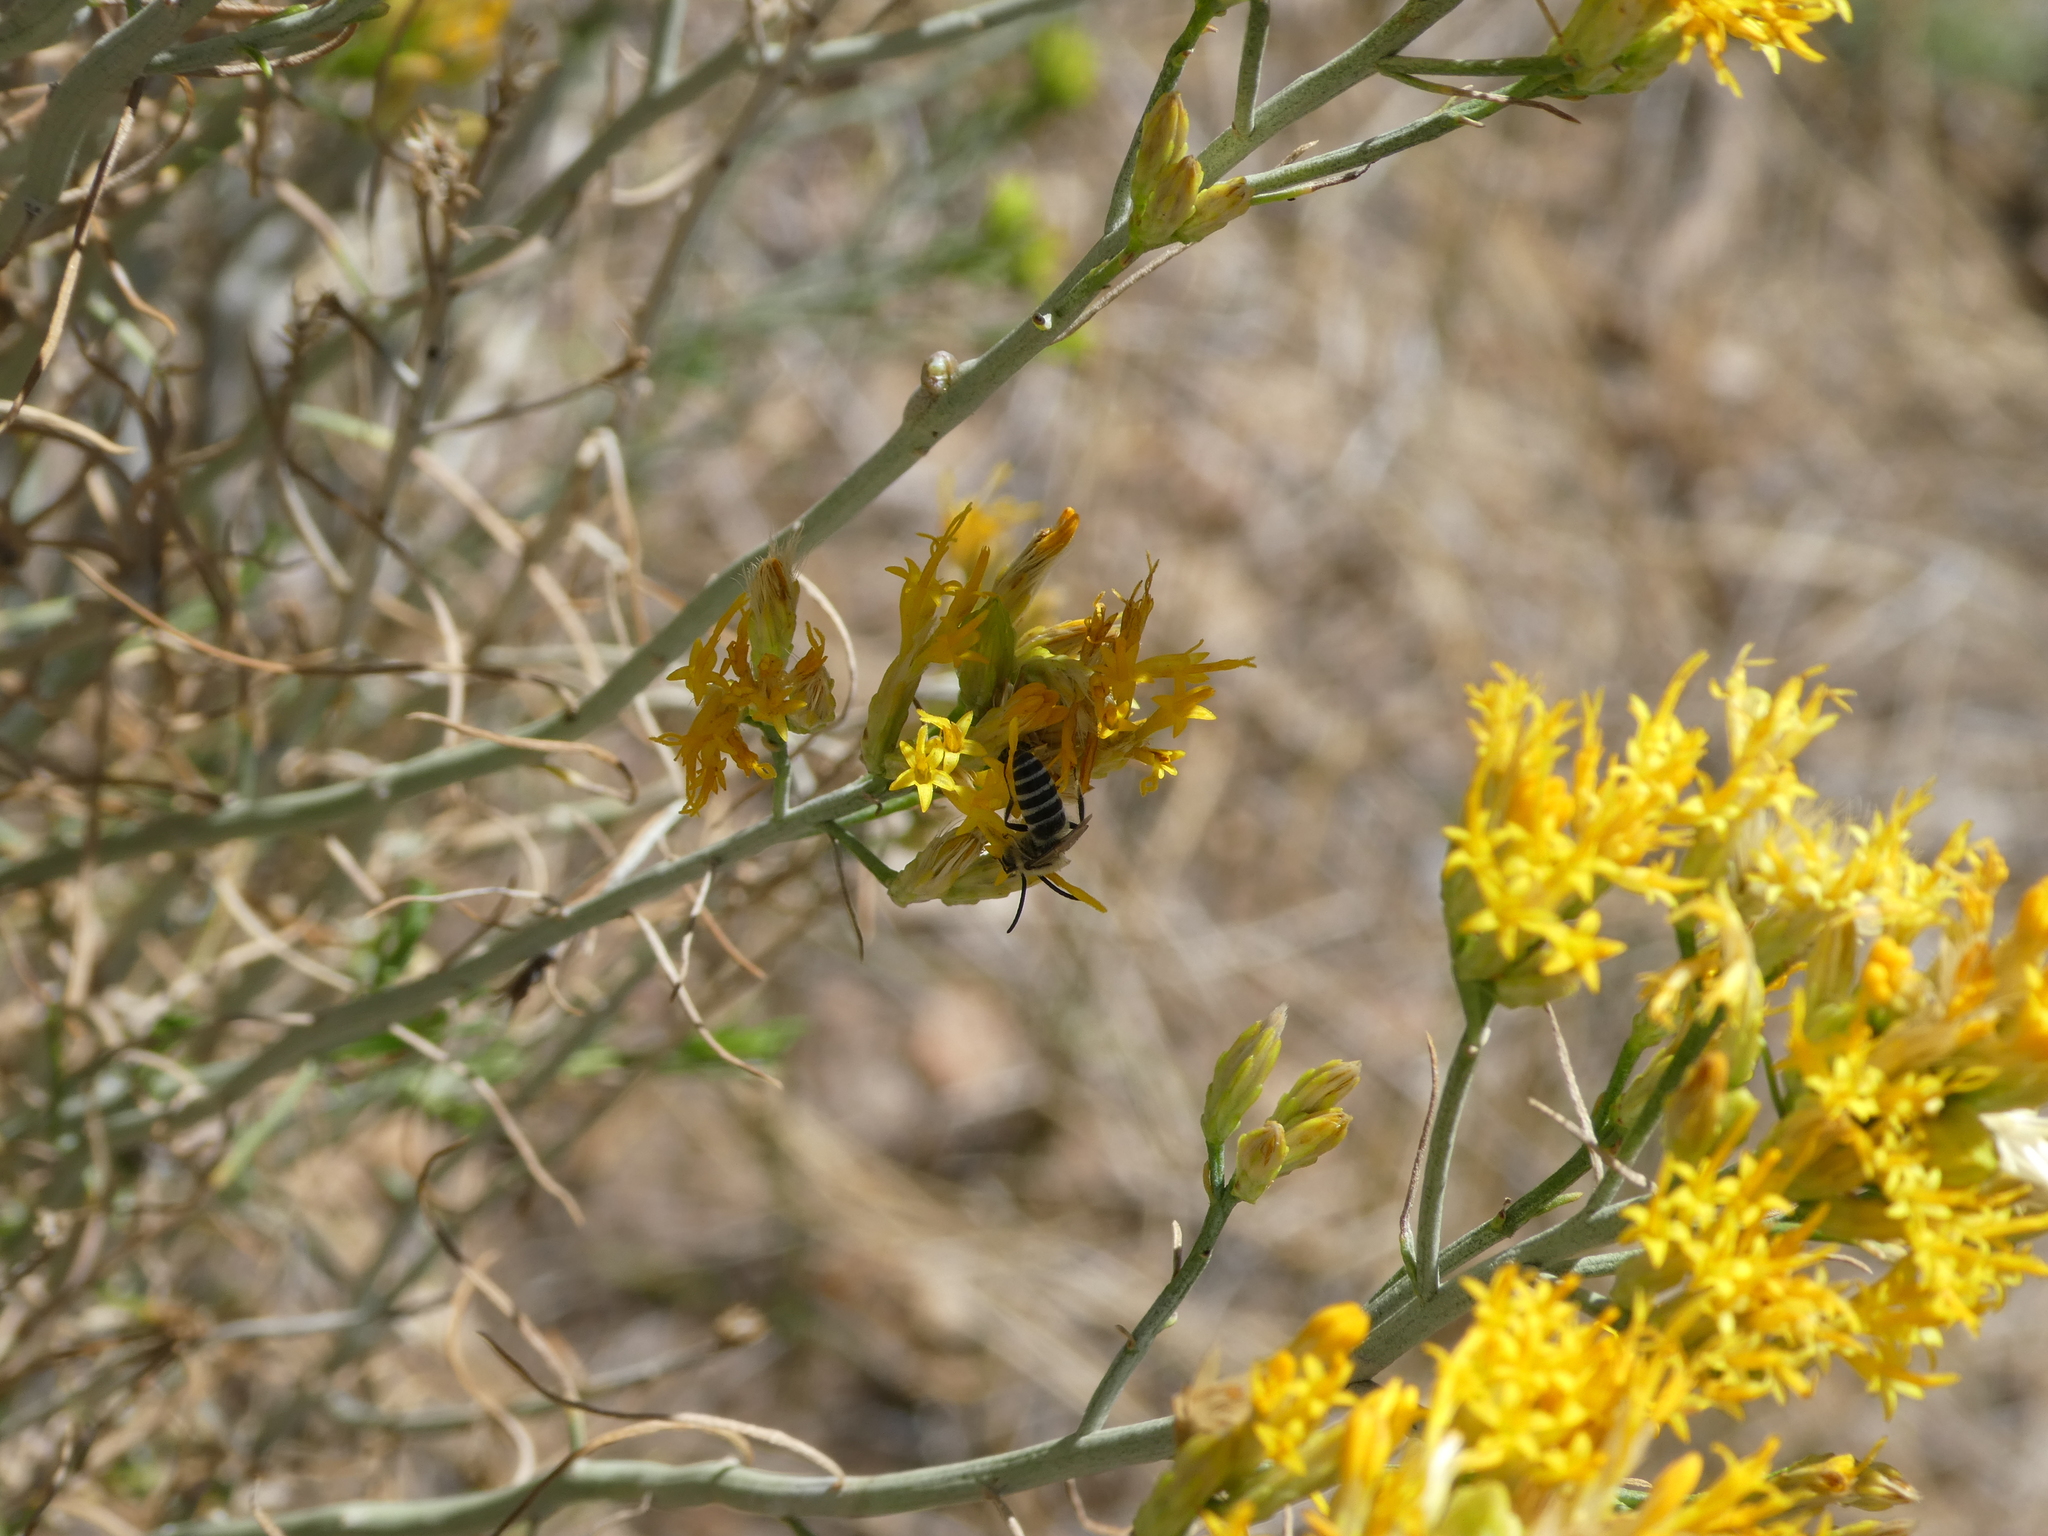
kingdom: Animalia
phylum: Arthropoda
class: Insecta
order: Hymenoptera
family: Colletidae
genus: Colletes
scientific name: Colletes
